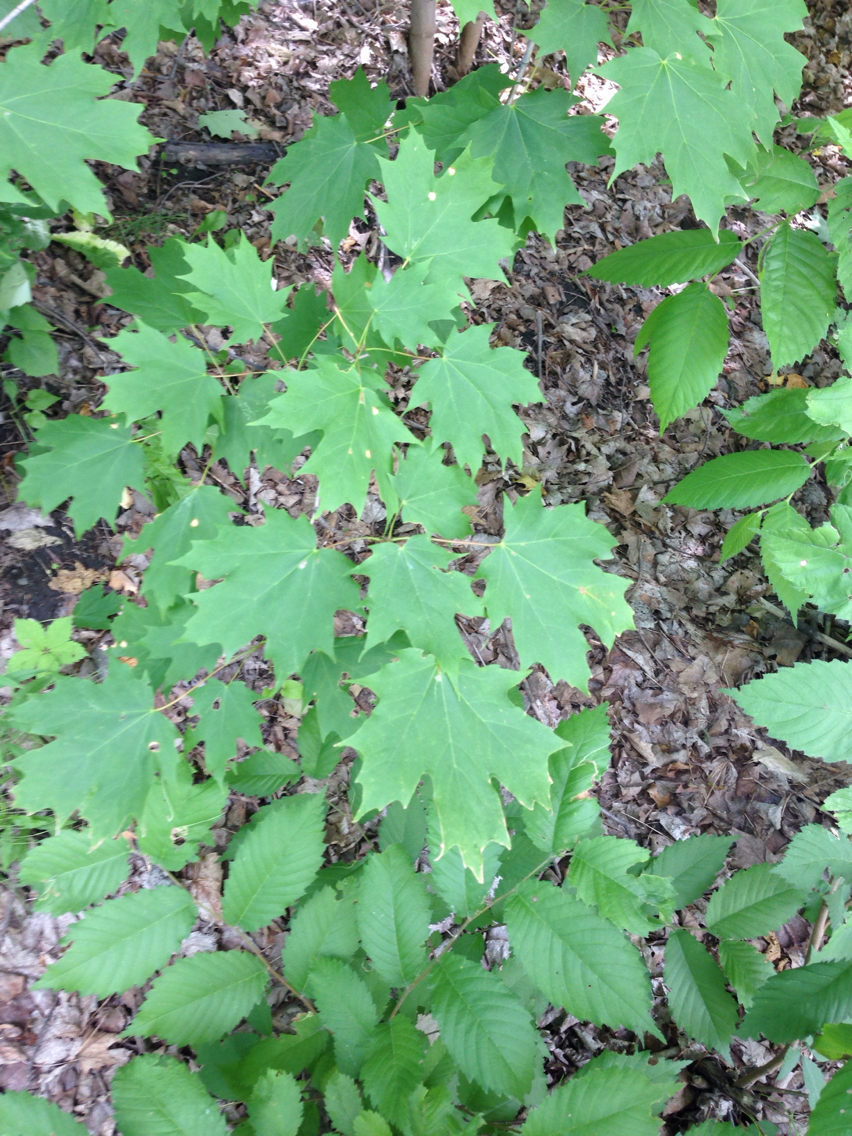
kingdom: Plantae
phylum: Tracheophyta
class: Magnoliopsida
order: Sapindales
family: Sapindaceae
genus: Acer
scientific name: Acer saccharum
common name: Sugar maple
